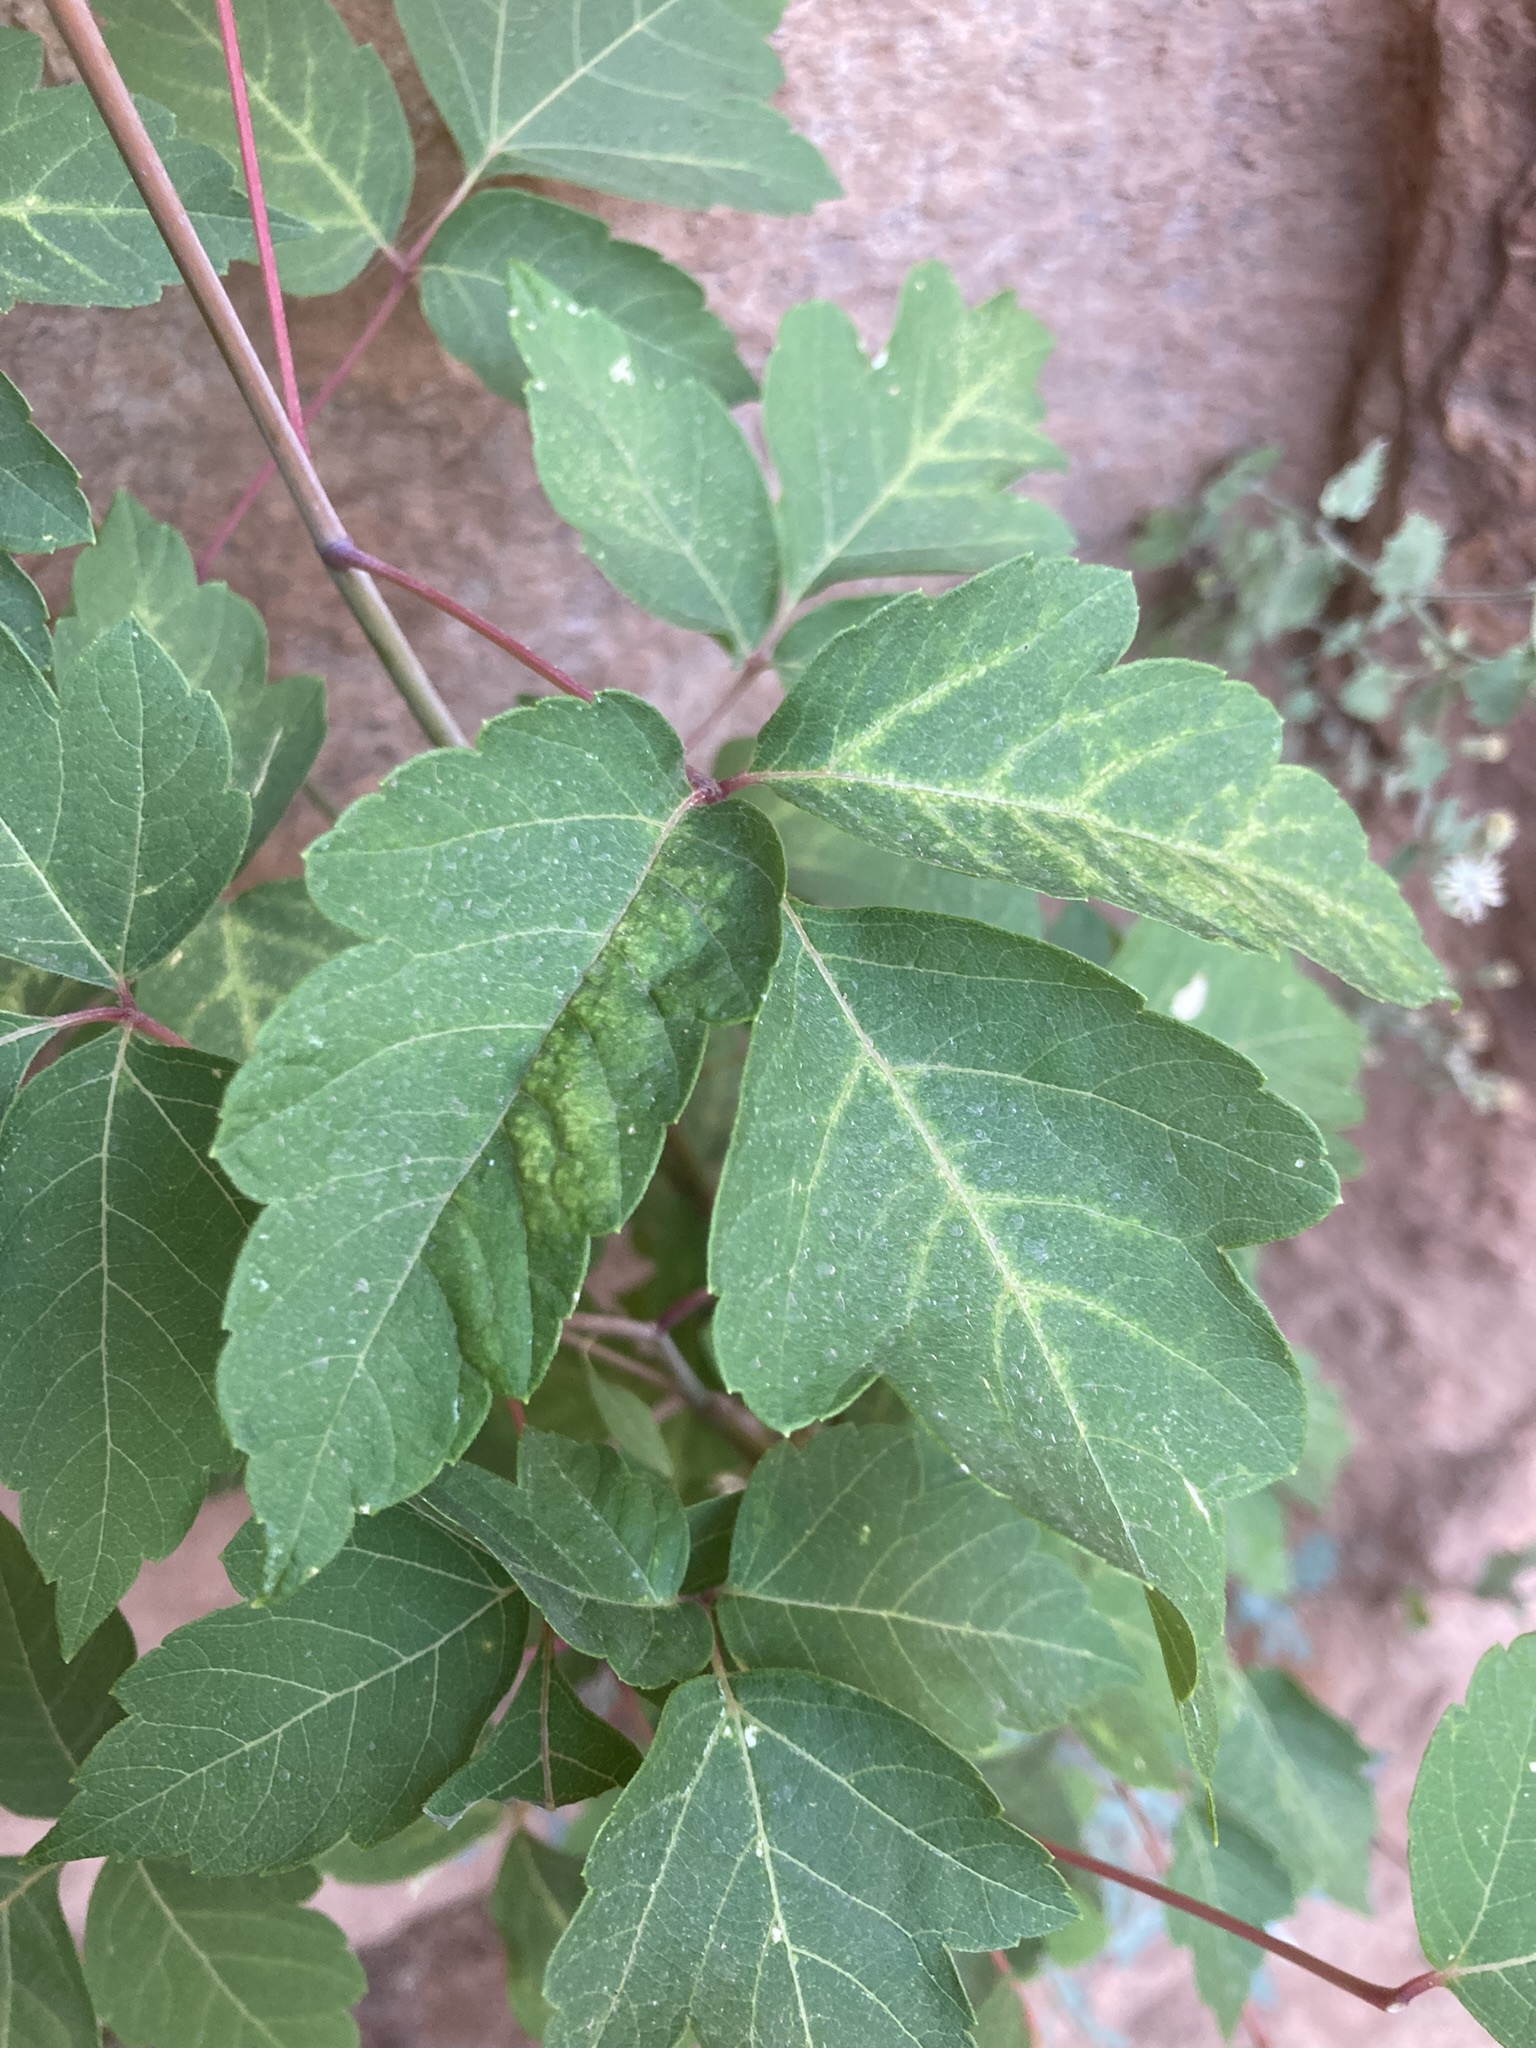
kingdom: Plantae
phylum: Tracheophyta
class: Magnoliopsida
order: Sapindales
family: Sapindaceae
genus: Acer
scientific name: Acer negundo
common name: Ashleaf maple
